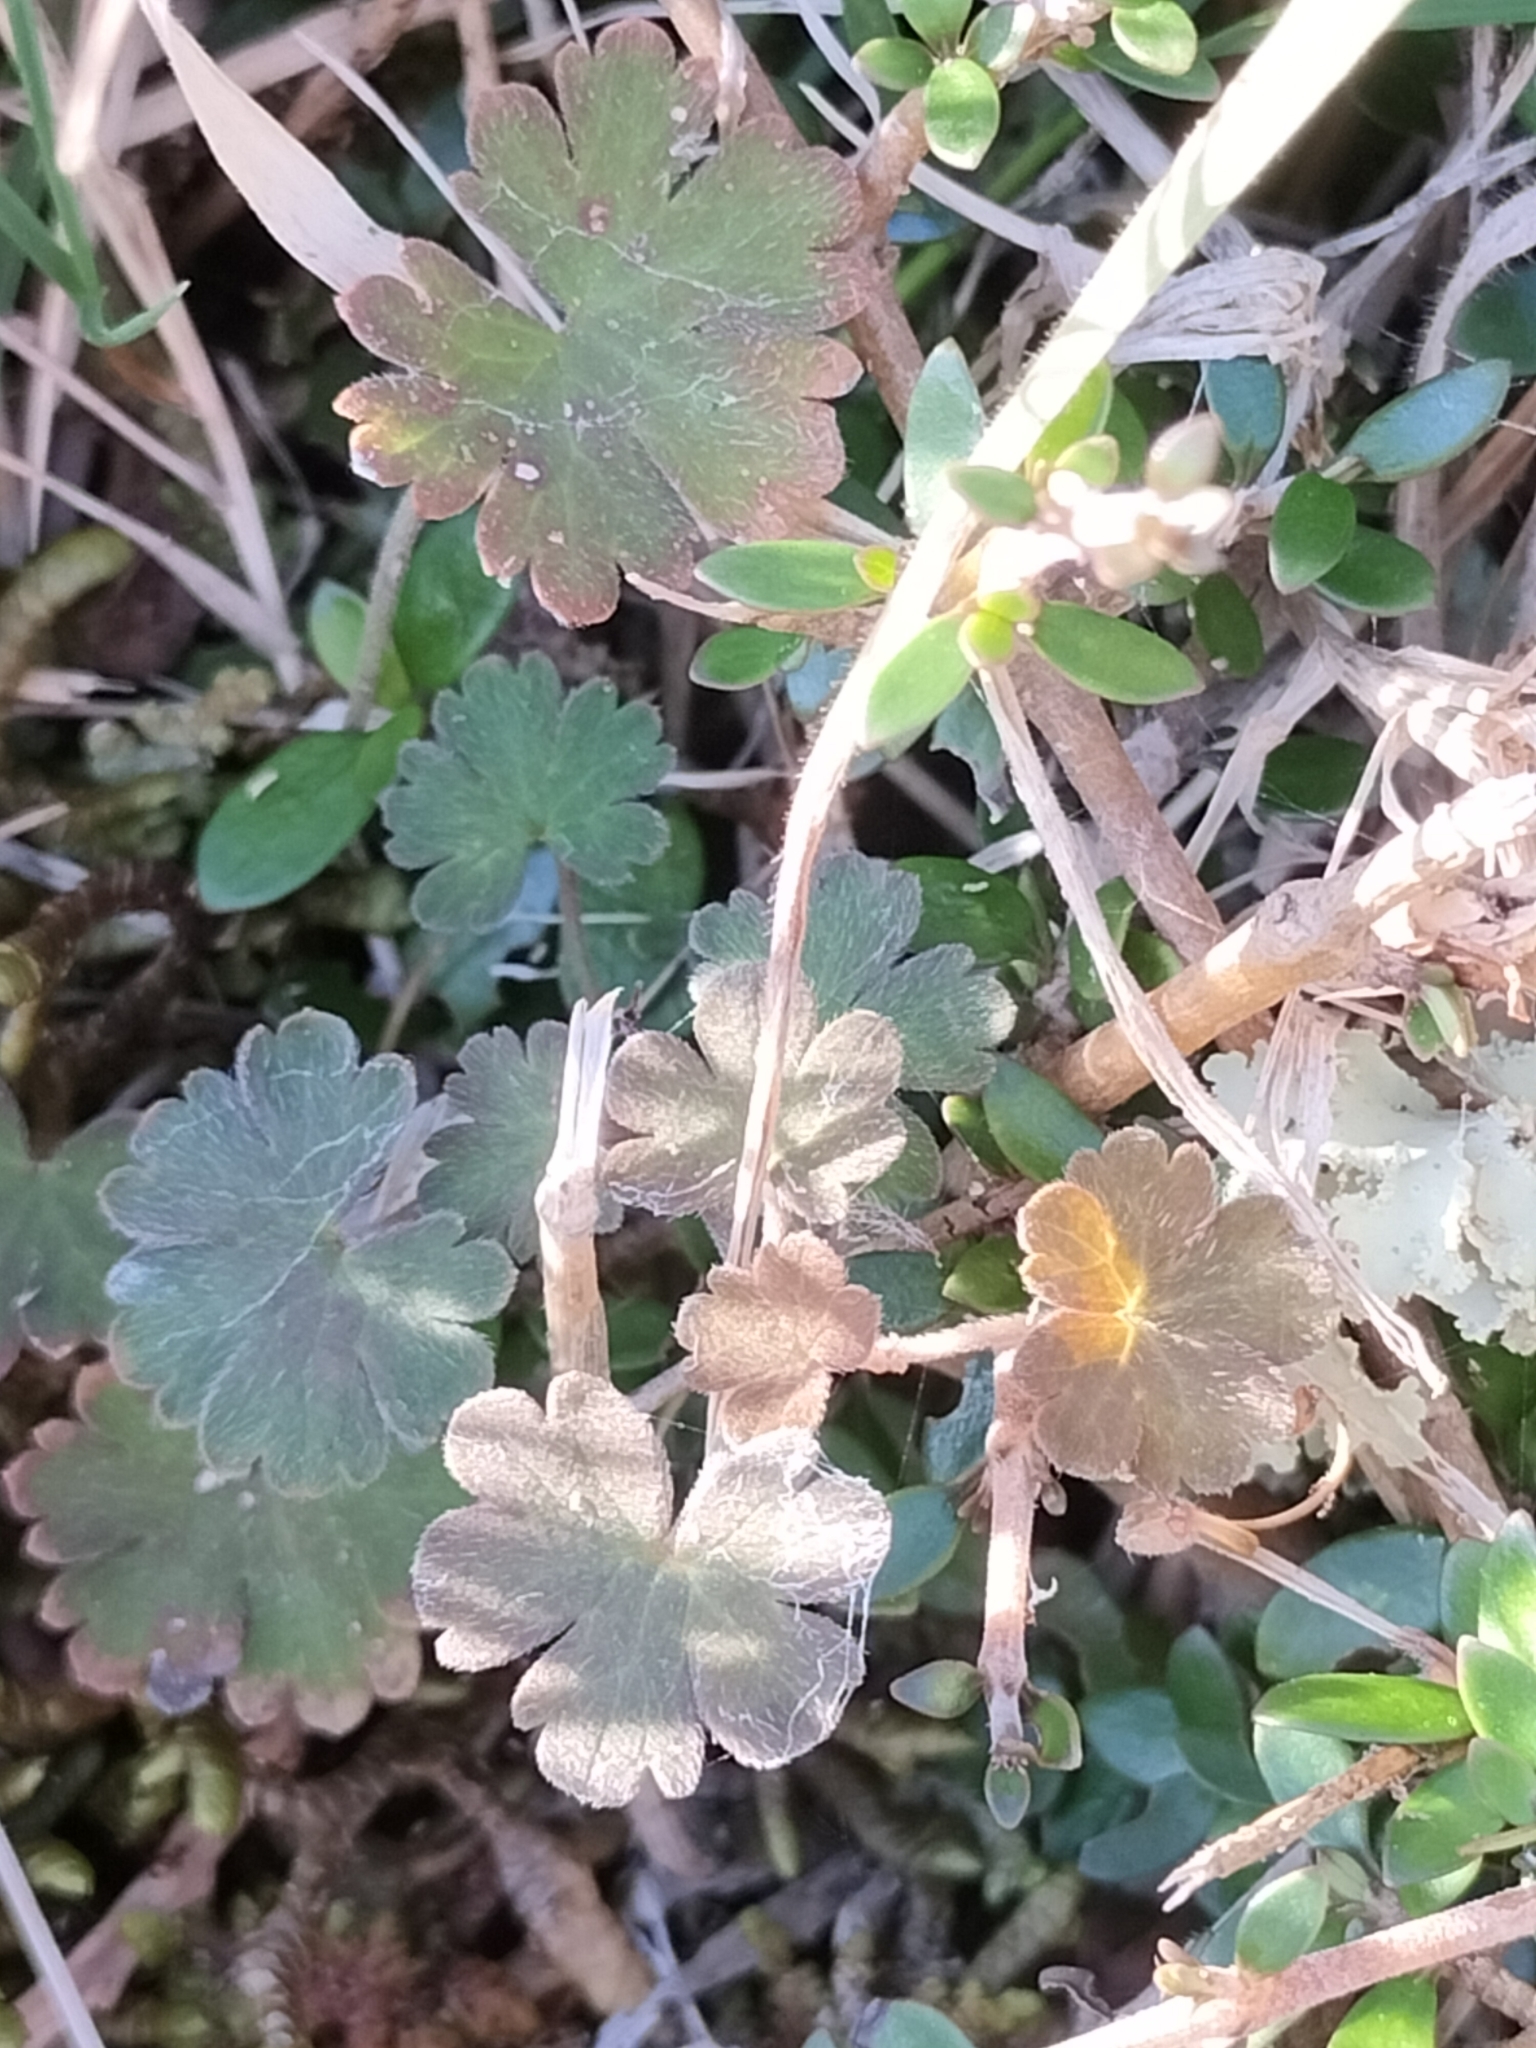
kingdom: Plantae
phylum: Tracheophyta
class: Magnoliopsida
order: Geraniales
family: Geraniaceae
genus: Geranium
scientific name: Geranium brevicaule
